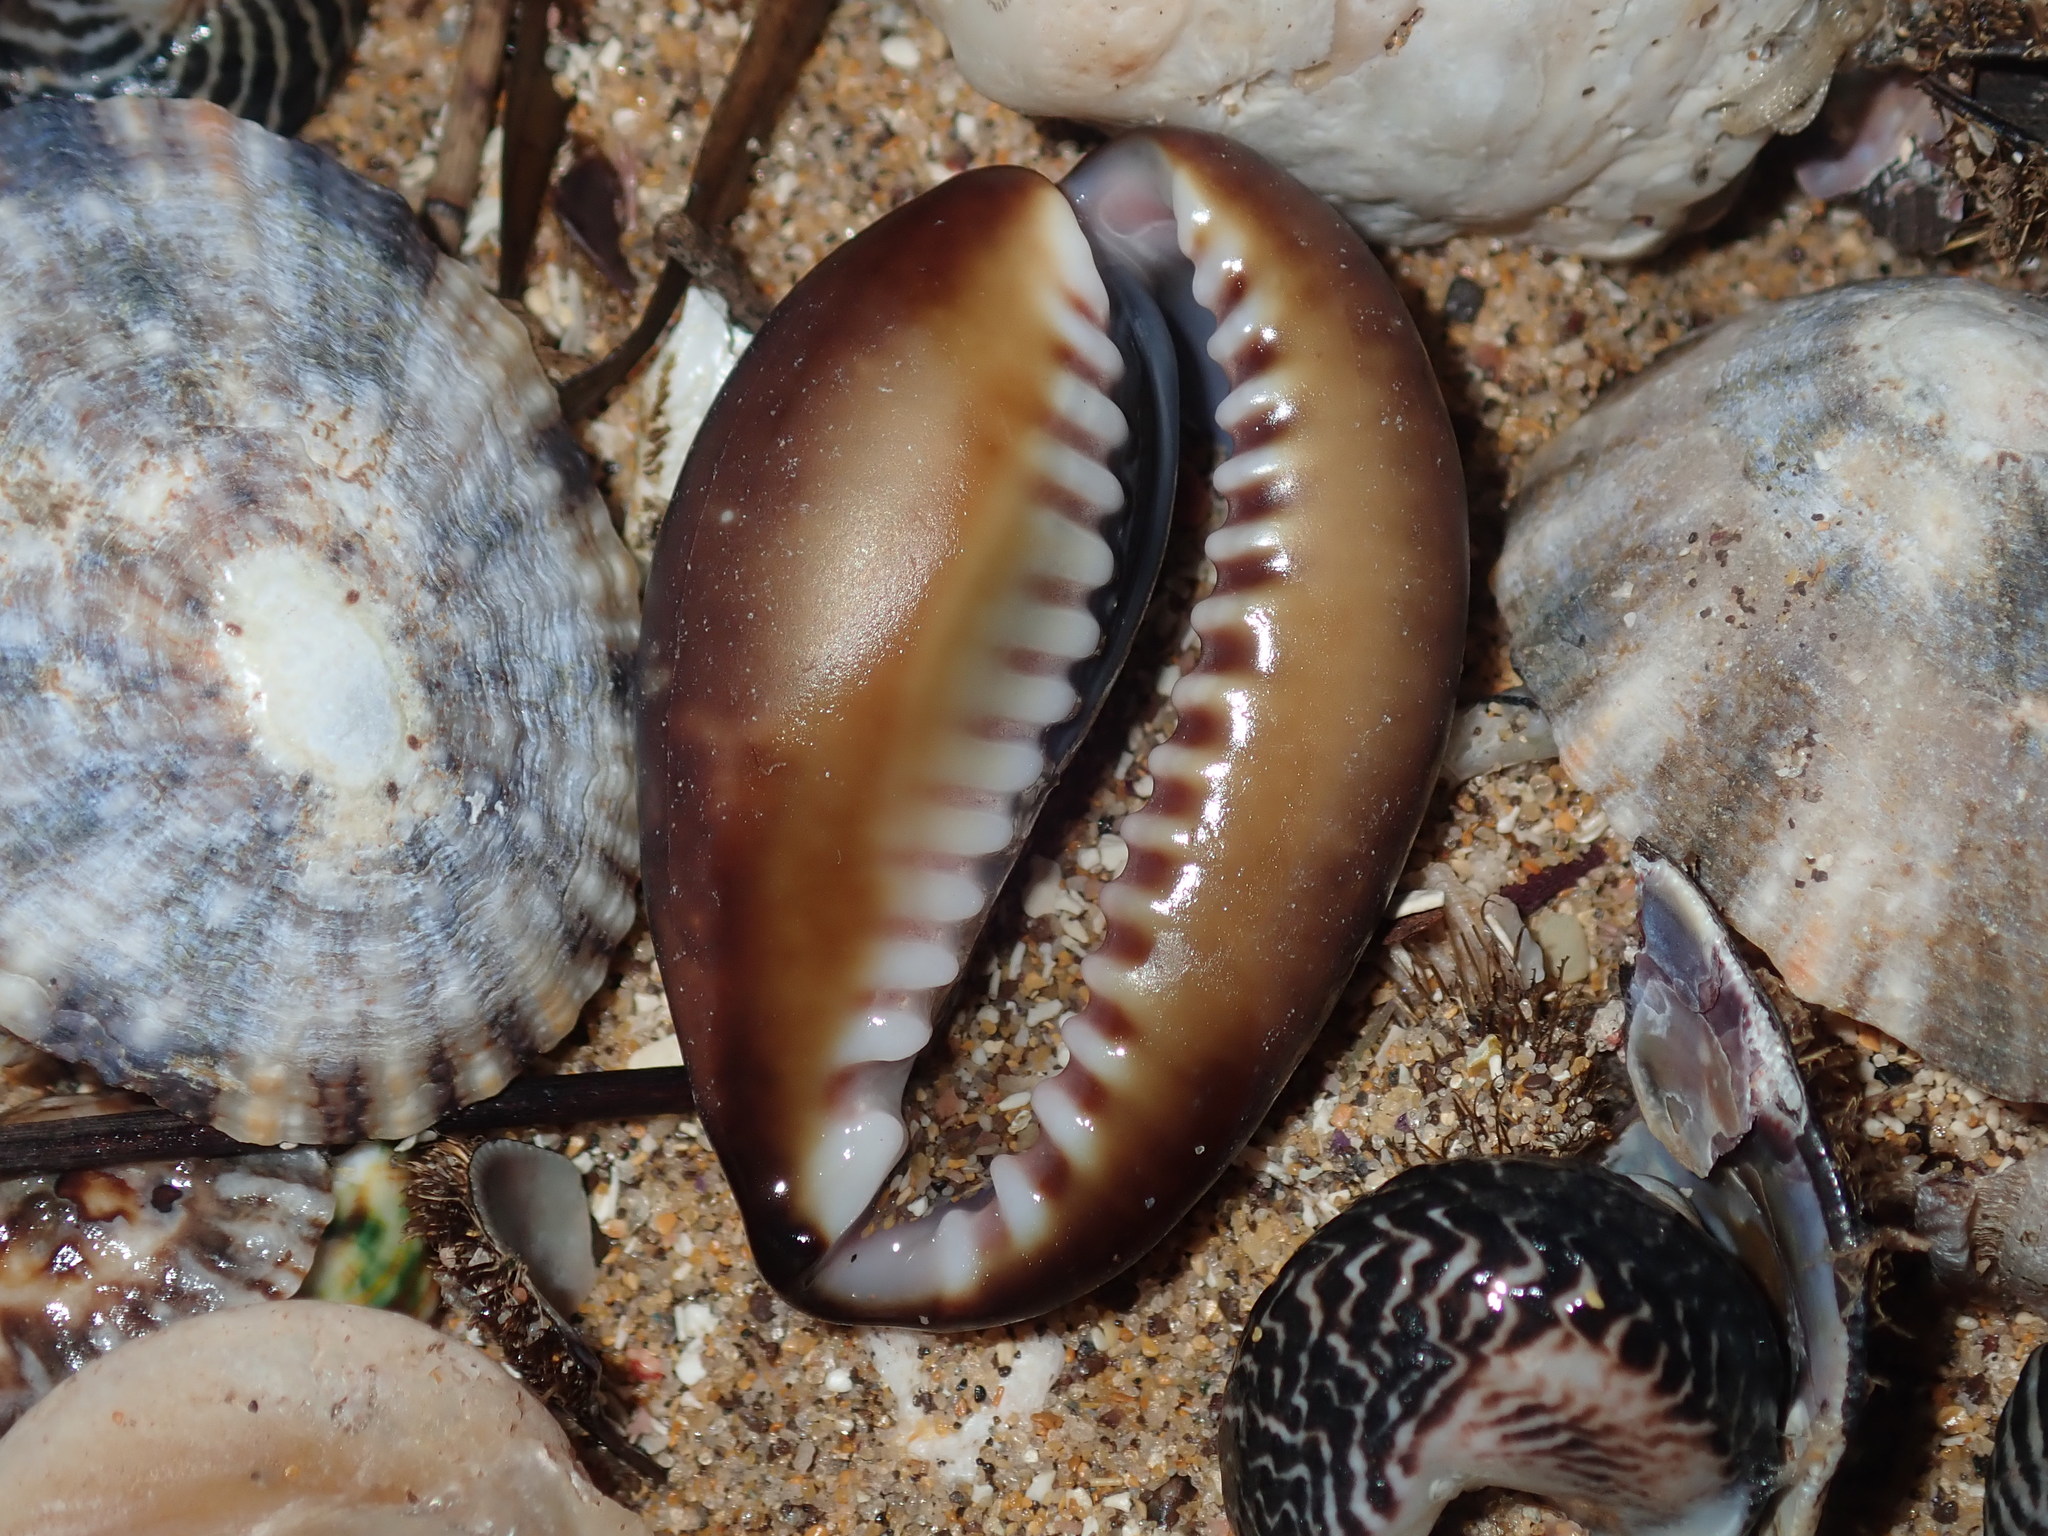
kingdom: Animalia
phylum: Mollusca
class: Gastropoda
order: Littorinimorpha
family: Cypraeidae
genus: Monetaria
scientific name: Monetaria caputserpentis
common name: Serpent's head cowrie
